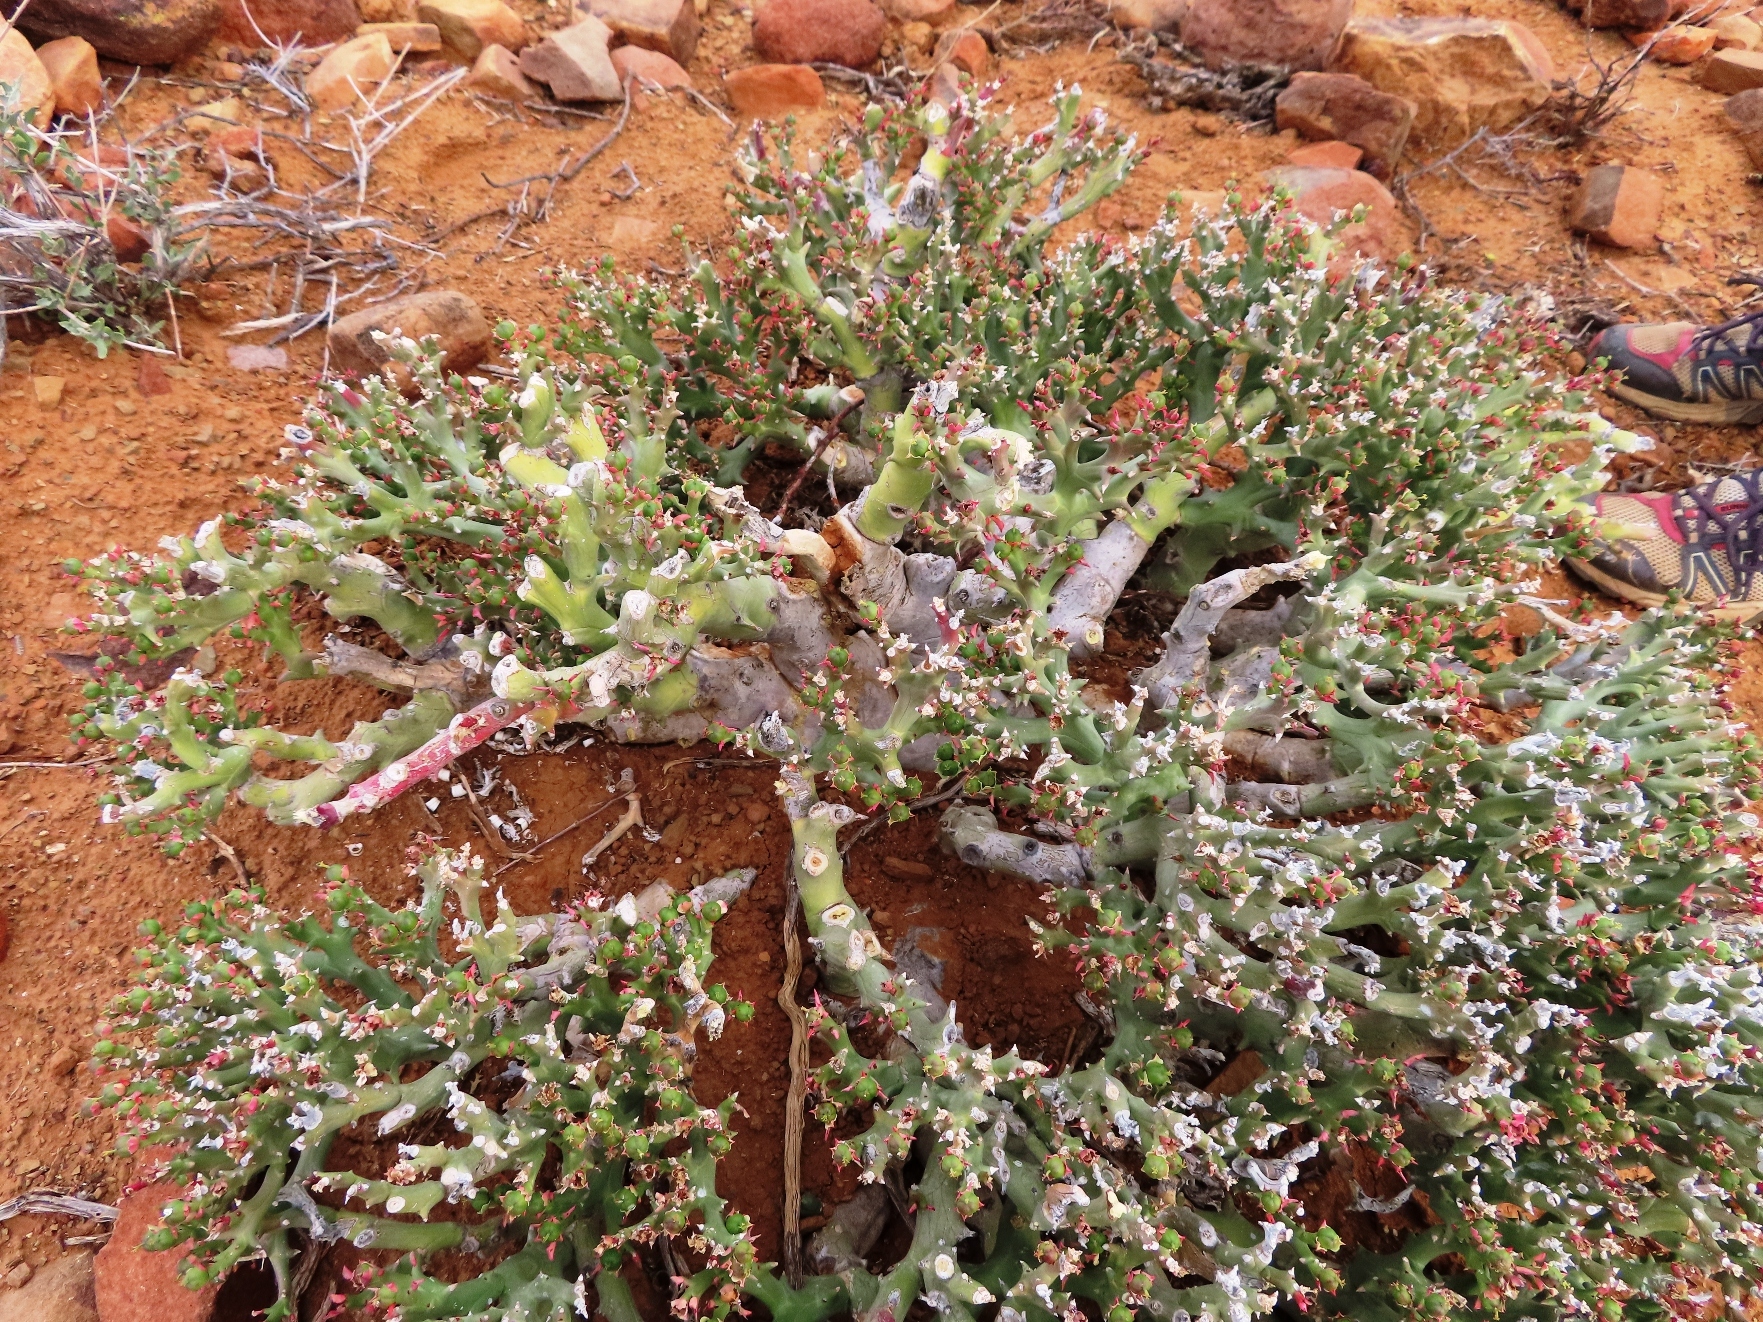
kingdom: Plantae
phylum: Tracheophyta
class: Magnoliopsida
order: Malpighiales
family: Euphorbiaceae
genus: Euphorbia
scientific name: Euphorbia hamata
